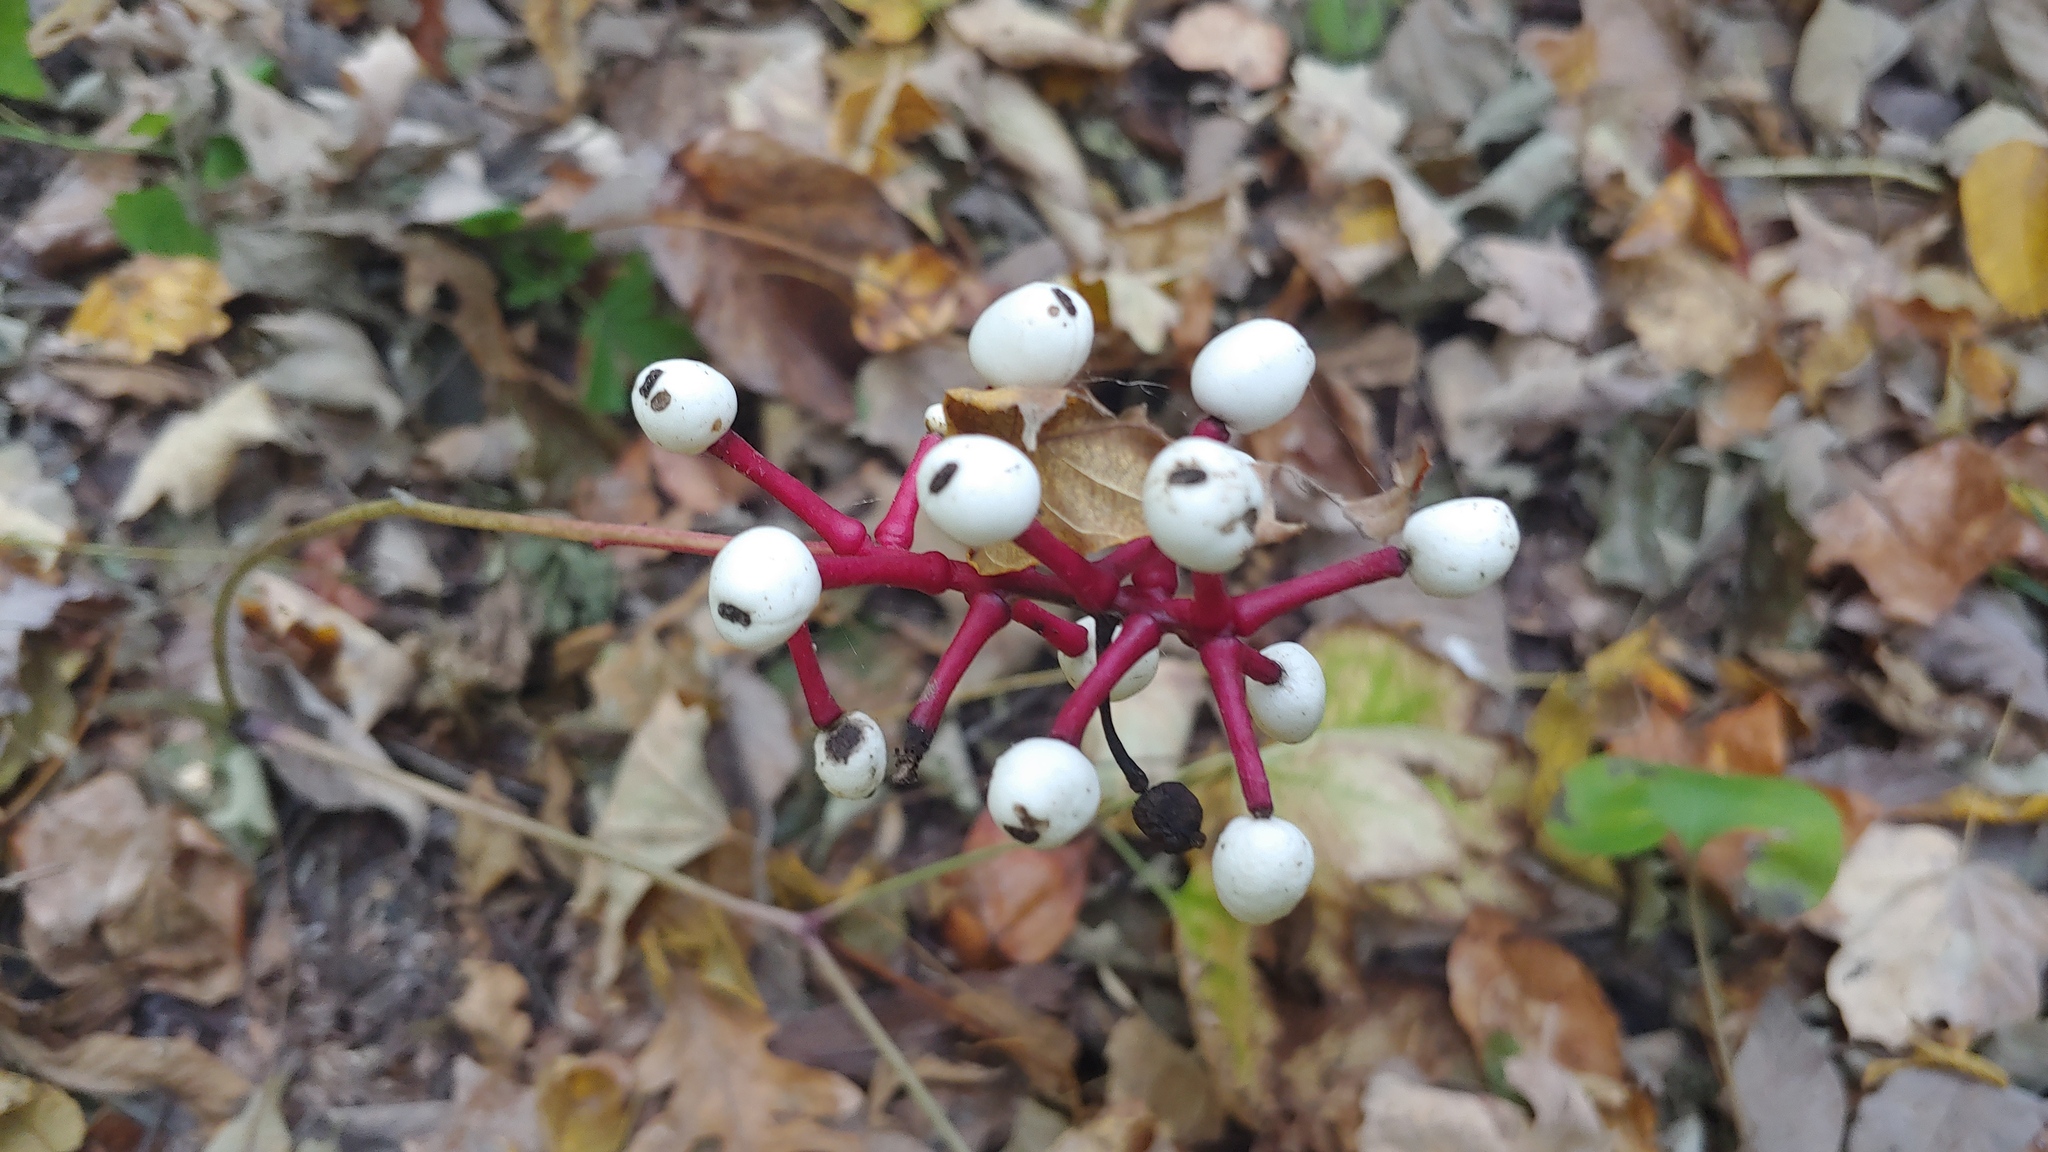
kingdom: Plantae
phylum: Tracheophyta
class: Magnoliopsida
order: Ranunculales
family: Ranunculaceae
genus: Actaea
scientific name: Actaea pachypoda
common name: Doll's-eyes
